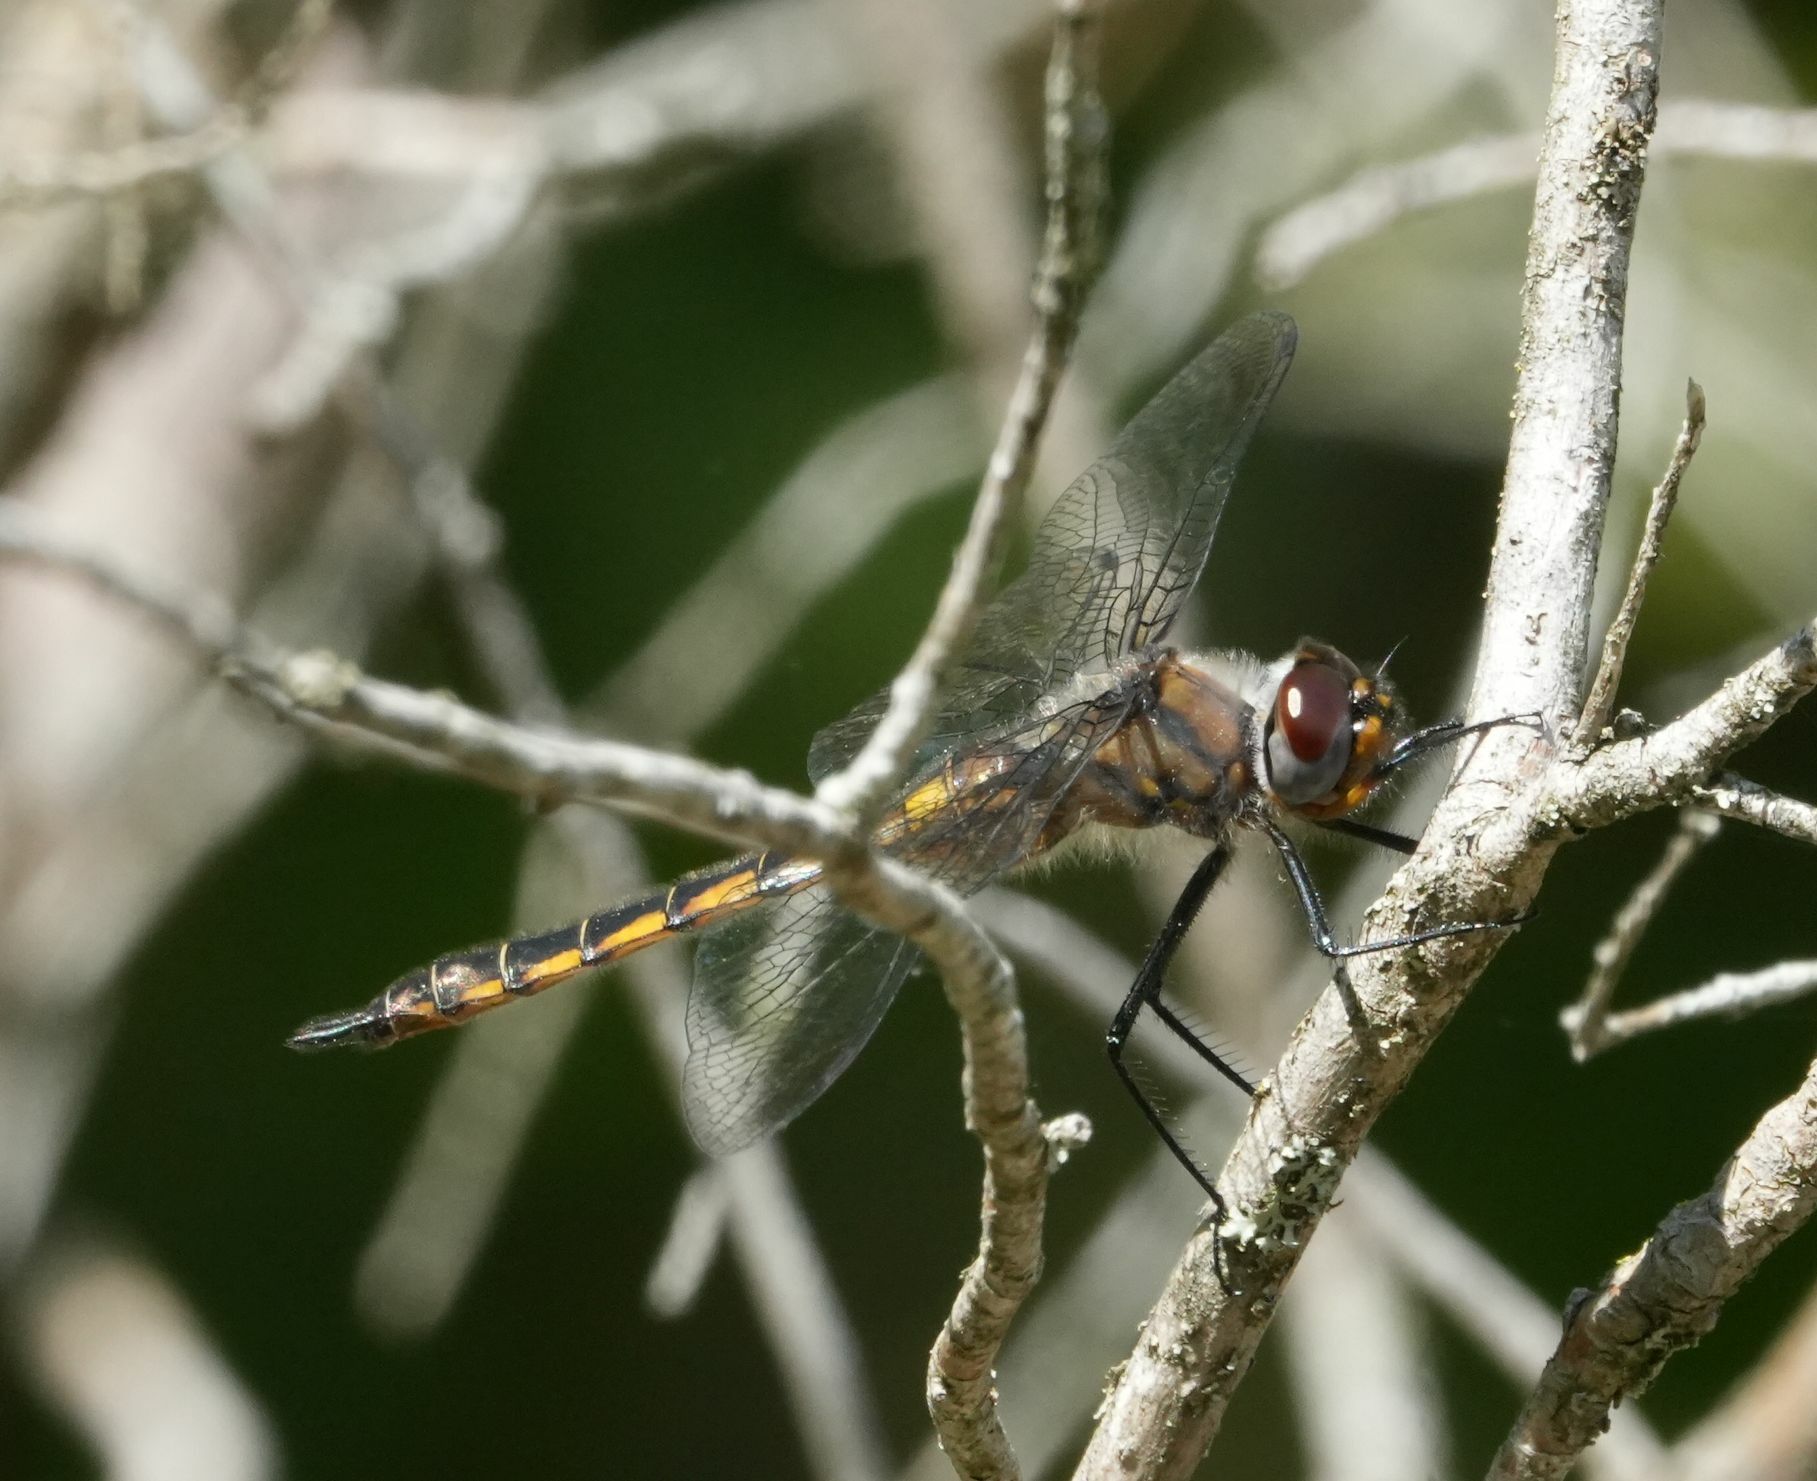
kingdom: Animalia
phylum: Arthropoda
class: Insecta
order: Odonata
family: Corduliidae
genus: Epitheca
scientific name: Epitheca spinigera
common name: Spiny baskettail
